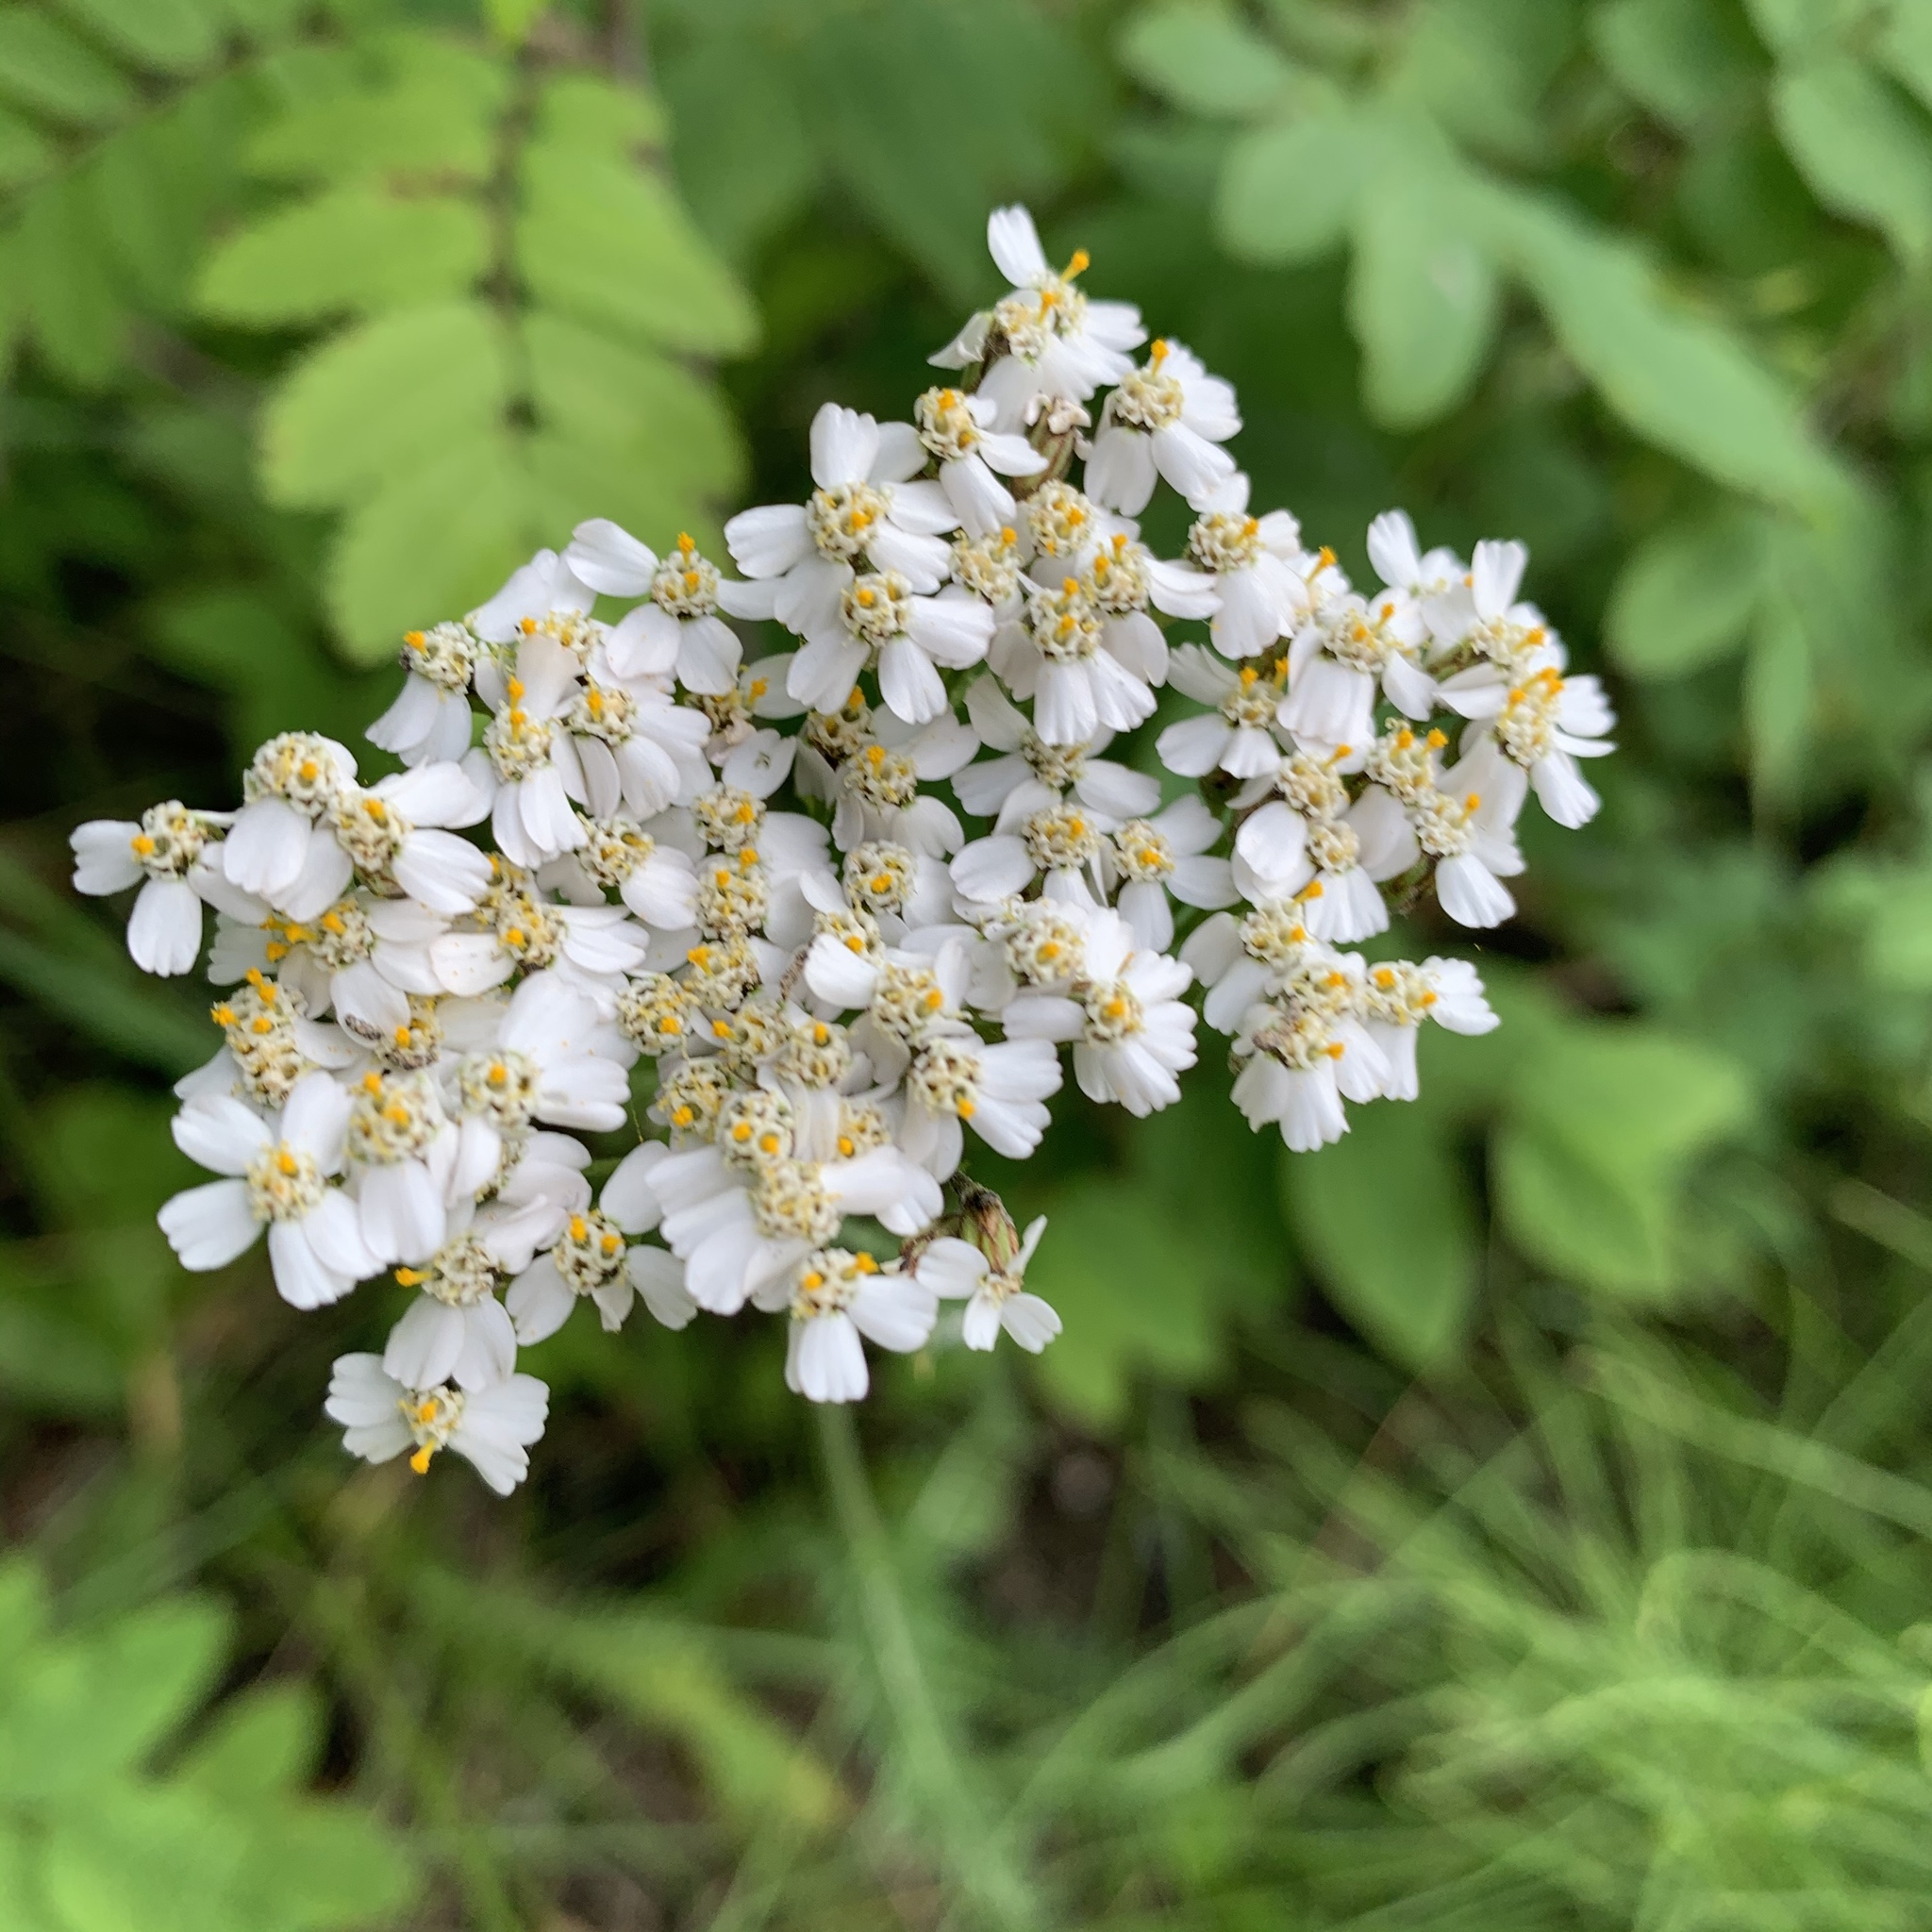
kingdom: Plantae
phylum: Tracheophyta
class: Magnoliopsida
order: Asterales
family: Asteraceae
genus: Achillea
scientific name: Achillea millefolium
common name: Yarrow
